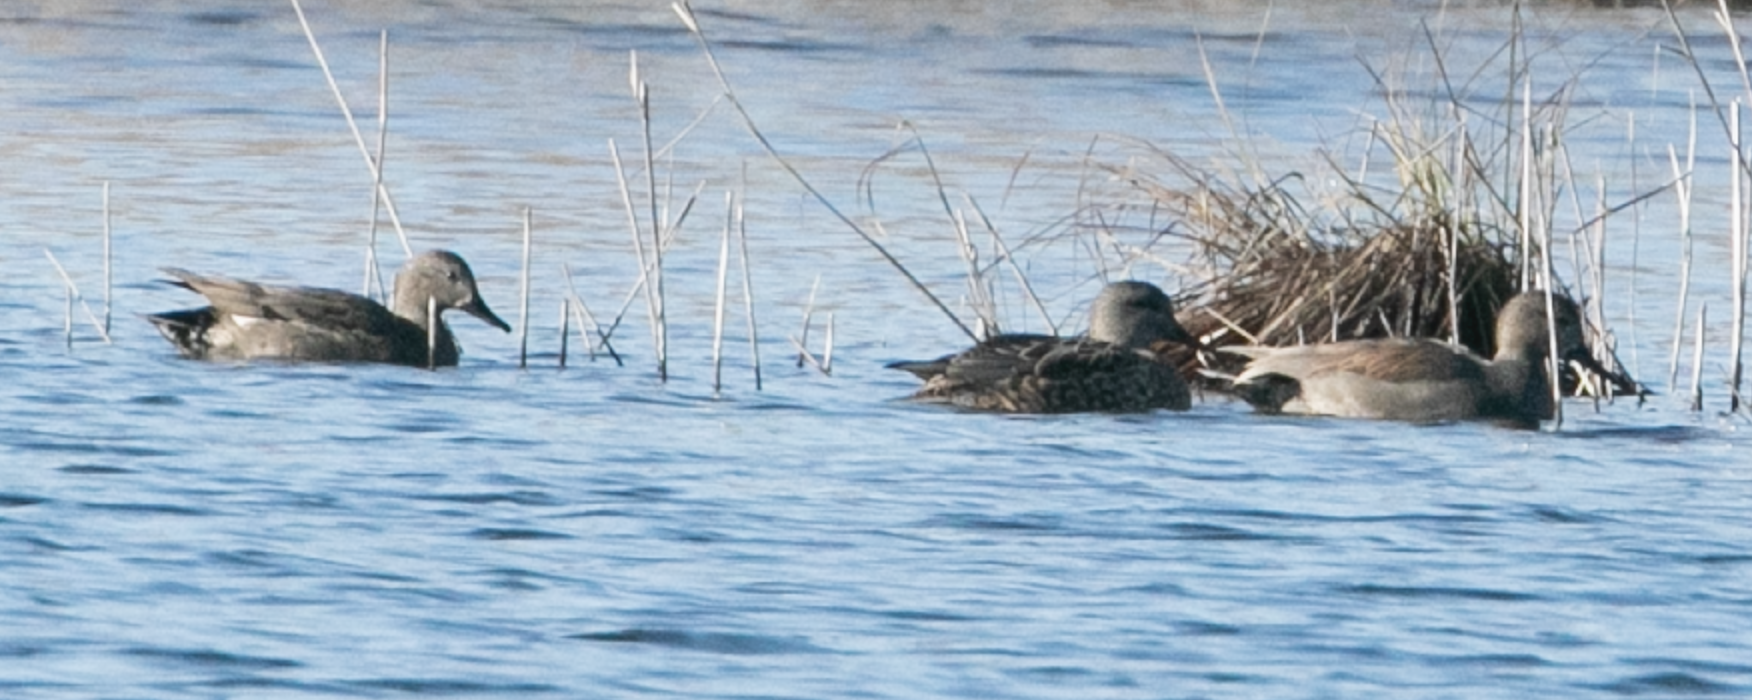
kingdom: Animalia
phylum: Chordata
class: Aves
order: Anseriformes
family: Anatidae
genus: Mareca
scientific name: Mareca strepera
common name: Gadwall
